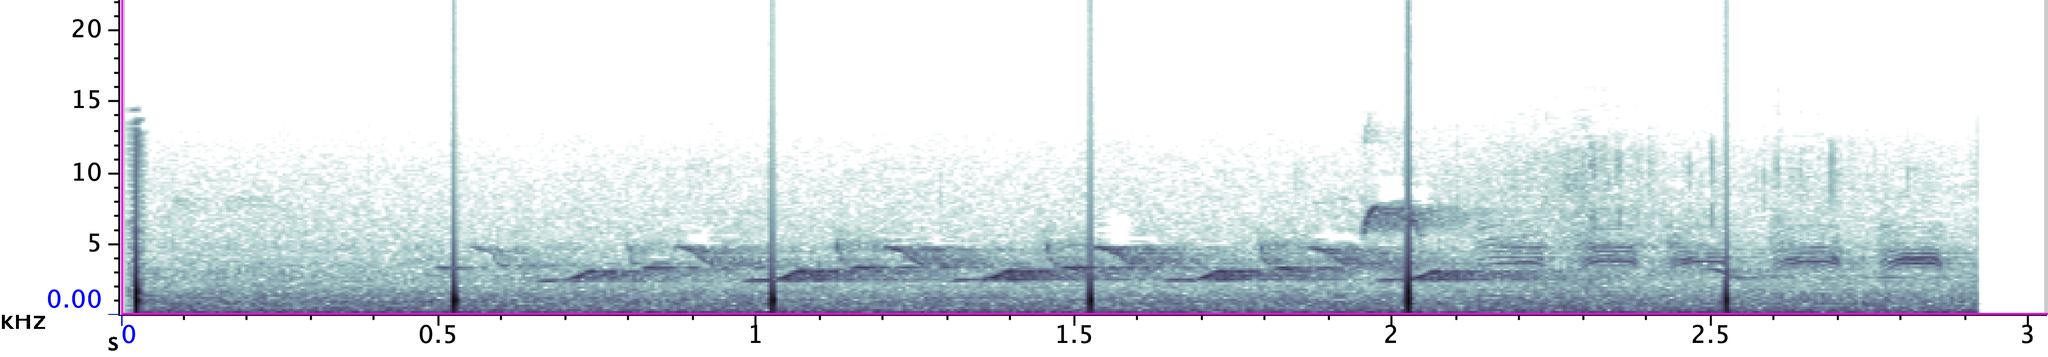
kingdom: Animalia
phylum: Chordata
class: Aves
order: Passeriformes
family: Troglodytidae
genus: Thryothorus
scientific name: Thryothorus ludovicianus
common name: Carolina wren
